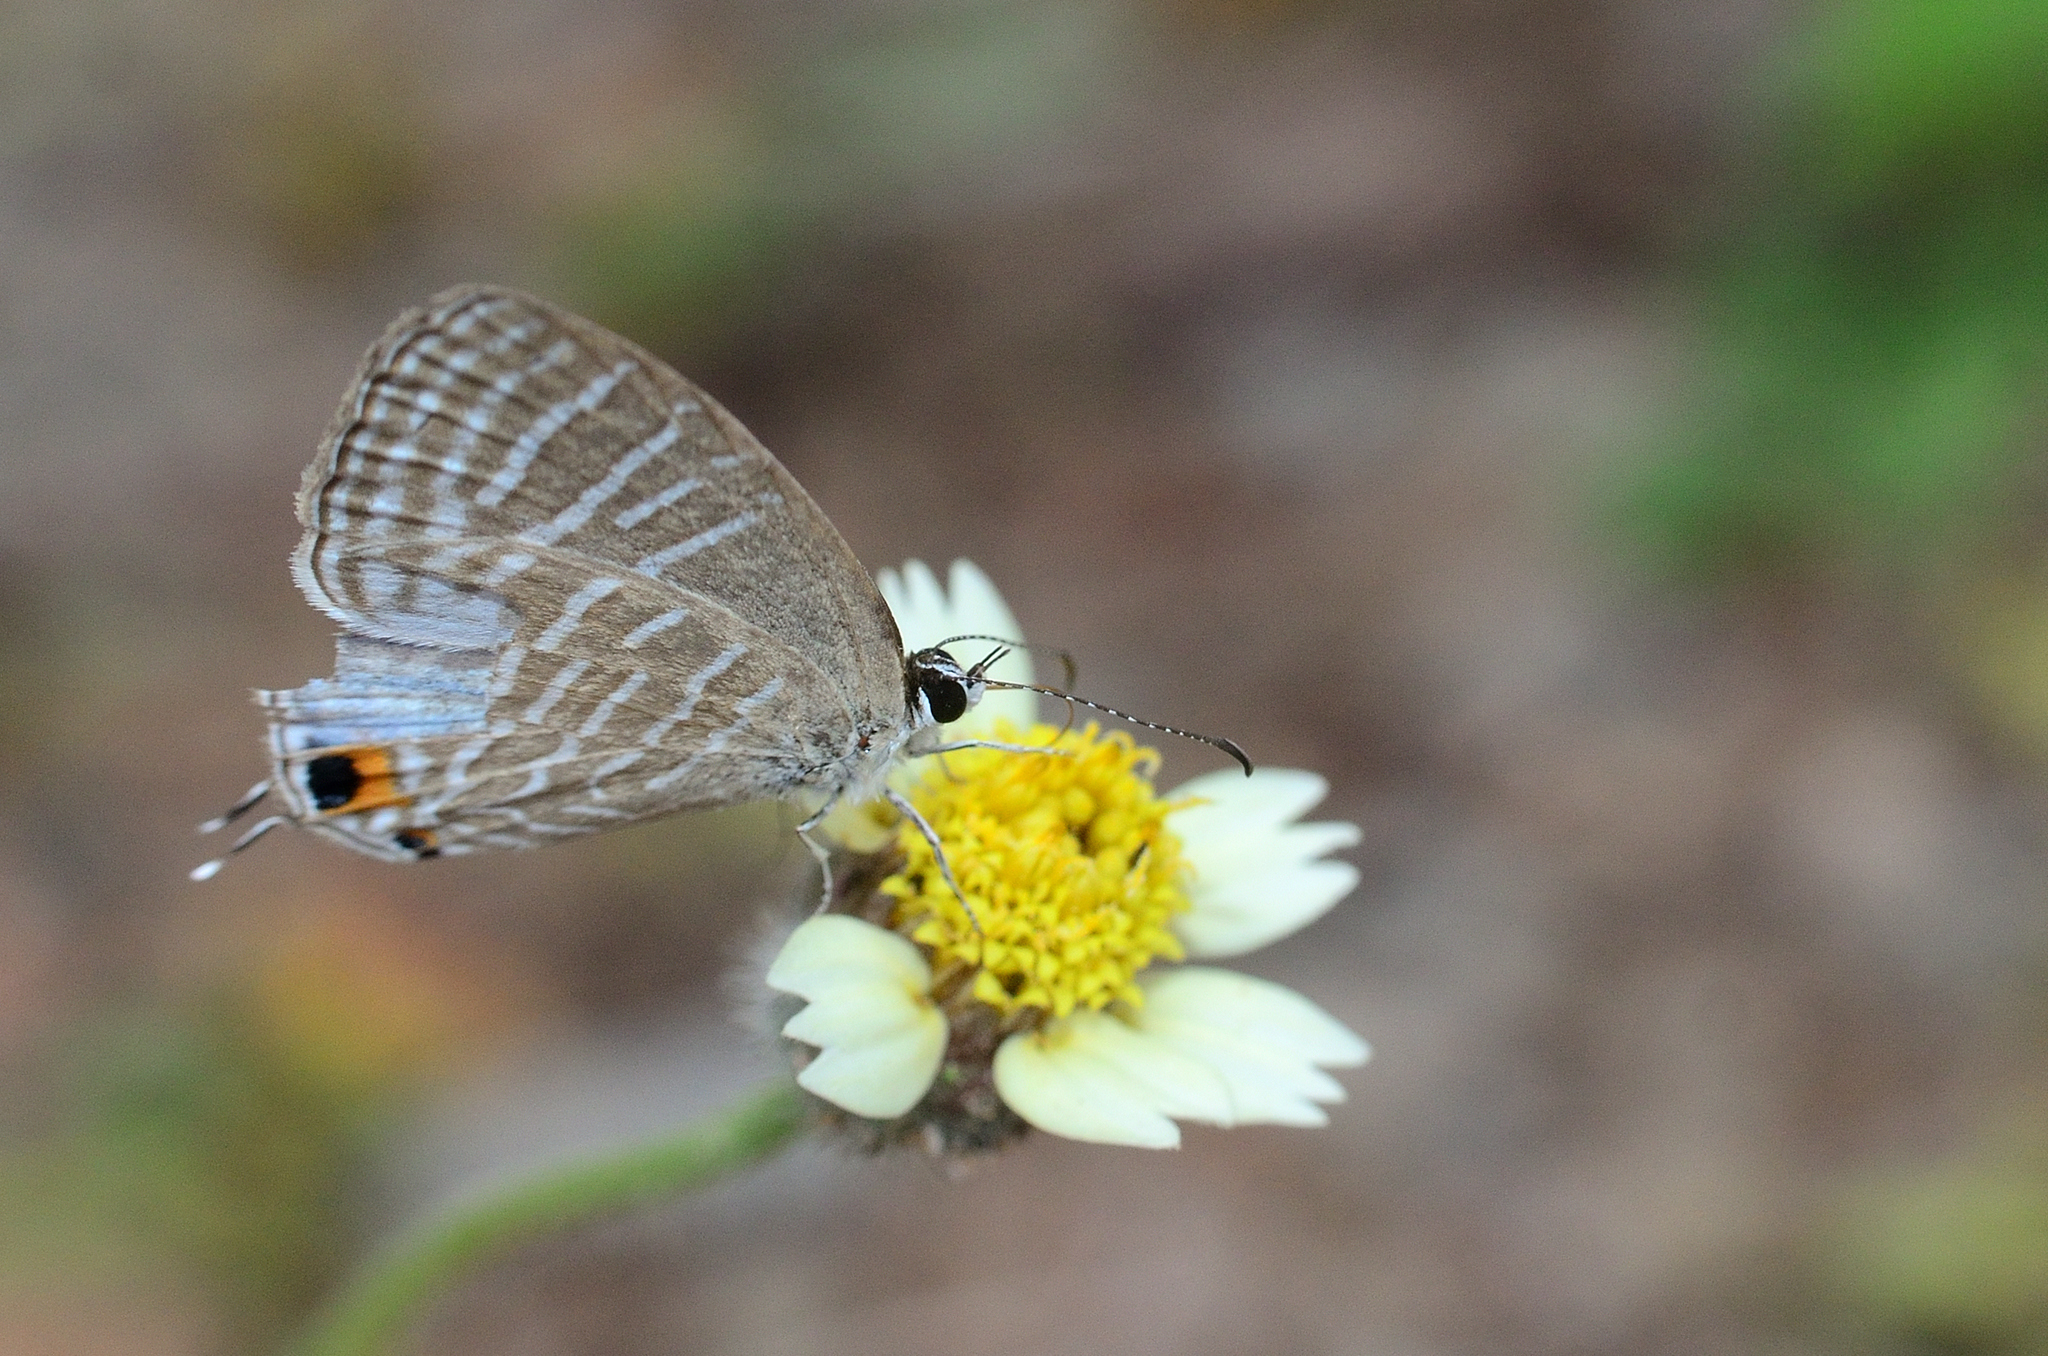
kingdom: Animalia
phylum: Arthropoda
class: Insecta
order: Lepidoptera
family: Lycaenidae
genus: Jamides
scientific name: Jamides celeno
